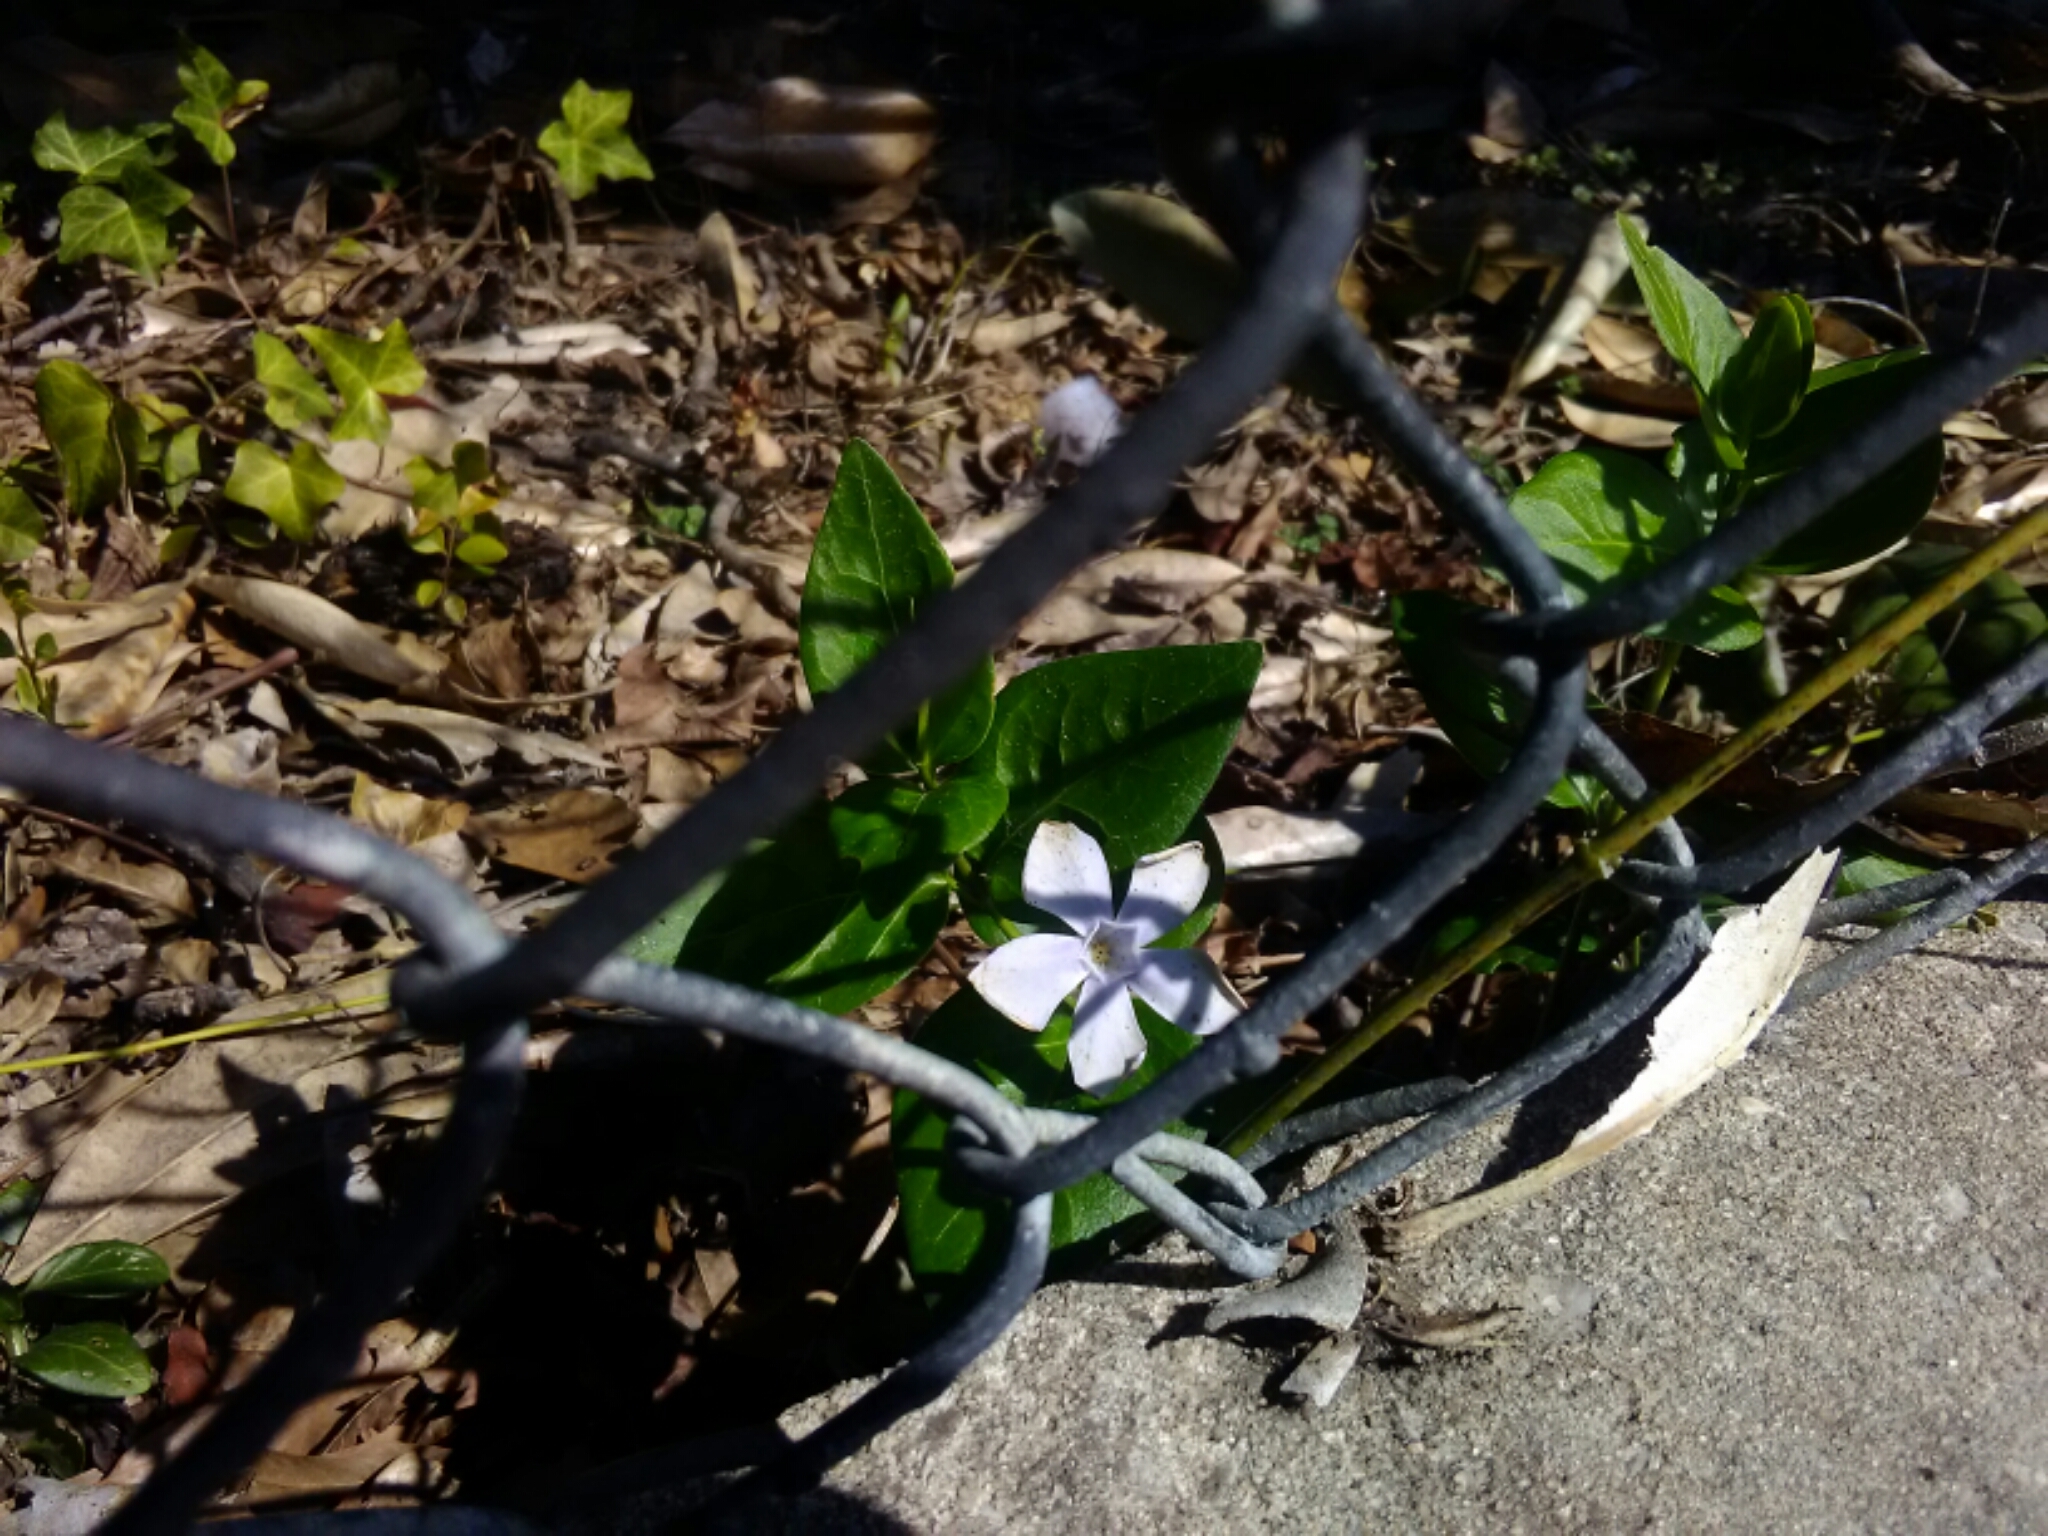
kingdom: Plantae
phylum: Tracheophyta
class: Magnoliopsida
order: Gentianales
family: Apocynaceae
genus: Vinca
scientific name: Vinca major
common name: Greater periwinkle
